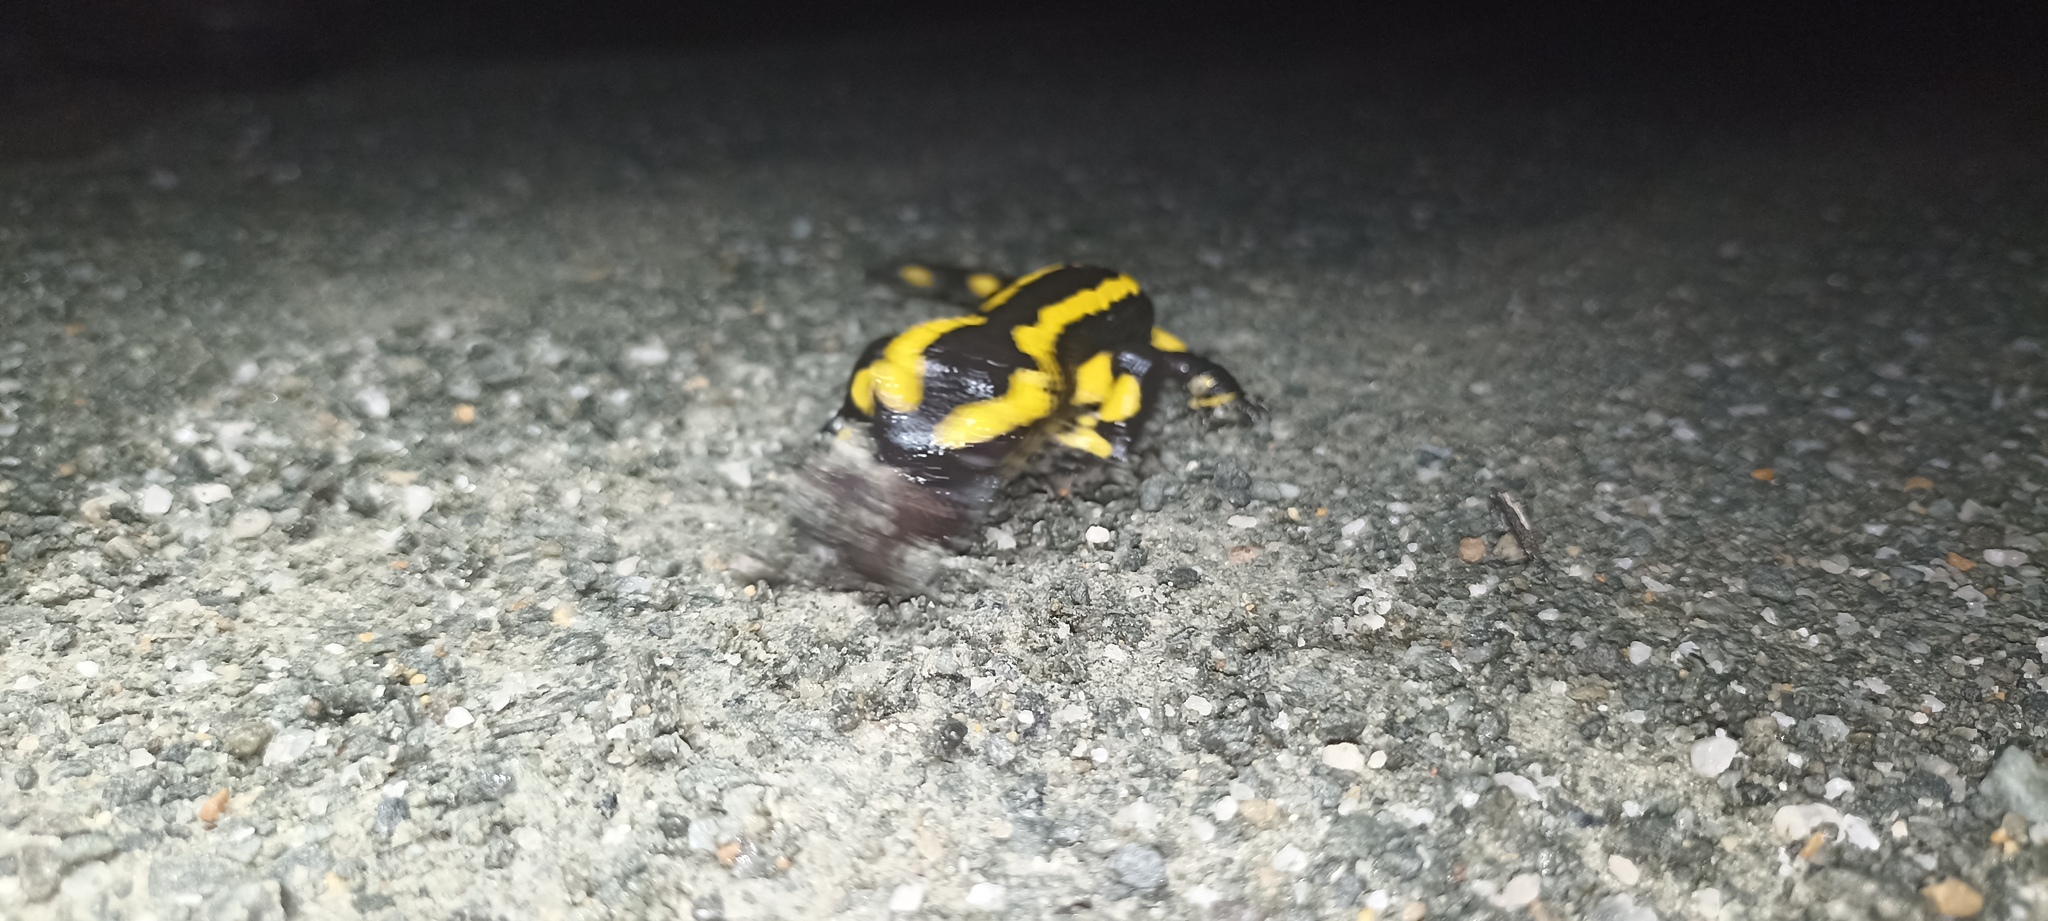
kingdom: Animalia
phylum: Chordata
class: Amphibia
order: Caudata
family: Salamandridae
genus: Salamandra
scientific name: Salamandra salamandra
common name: Fire salamander
